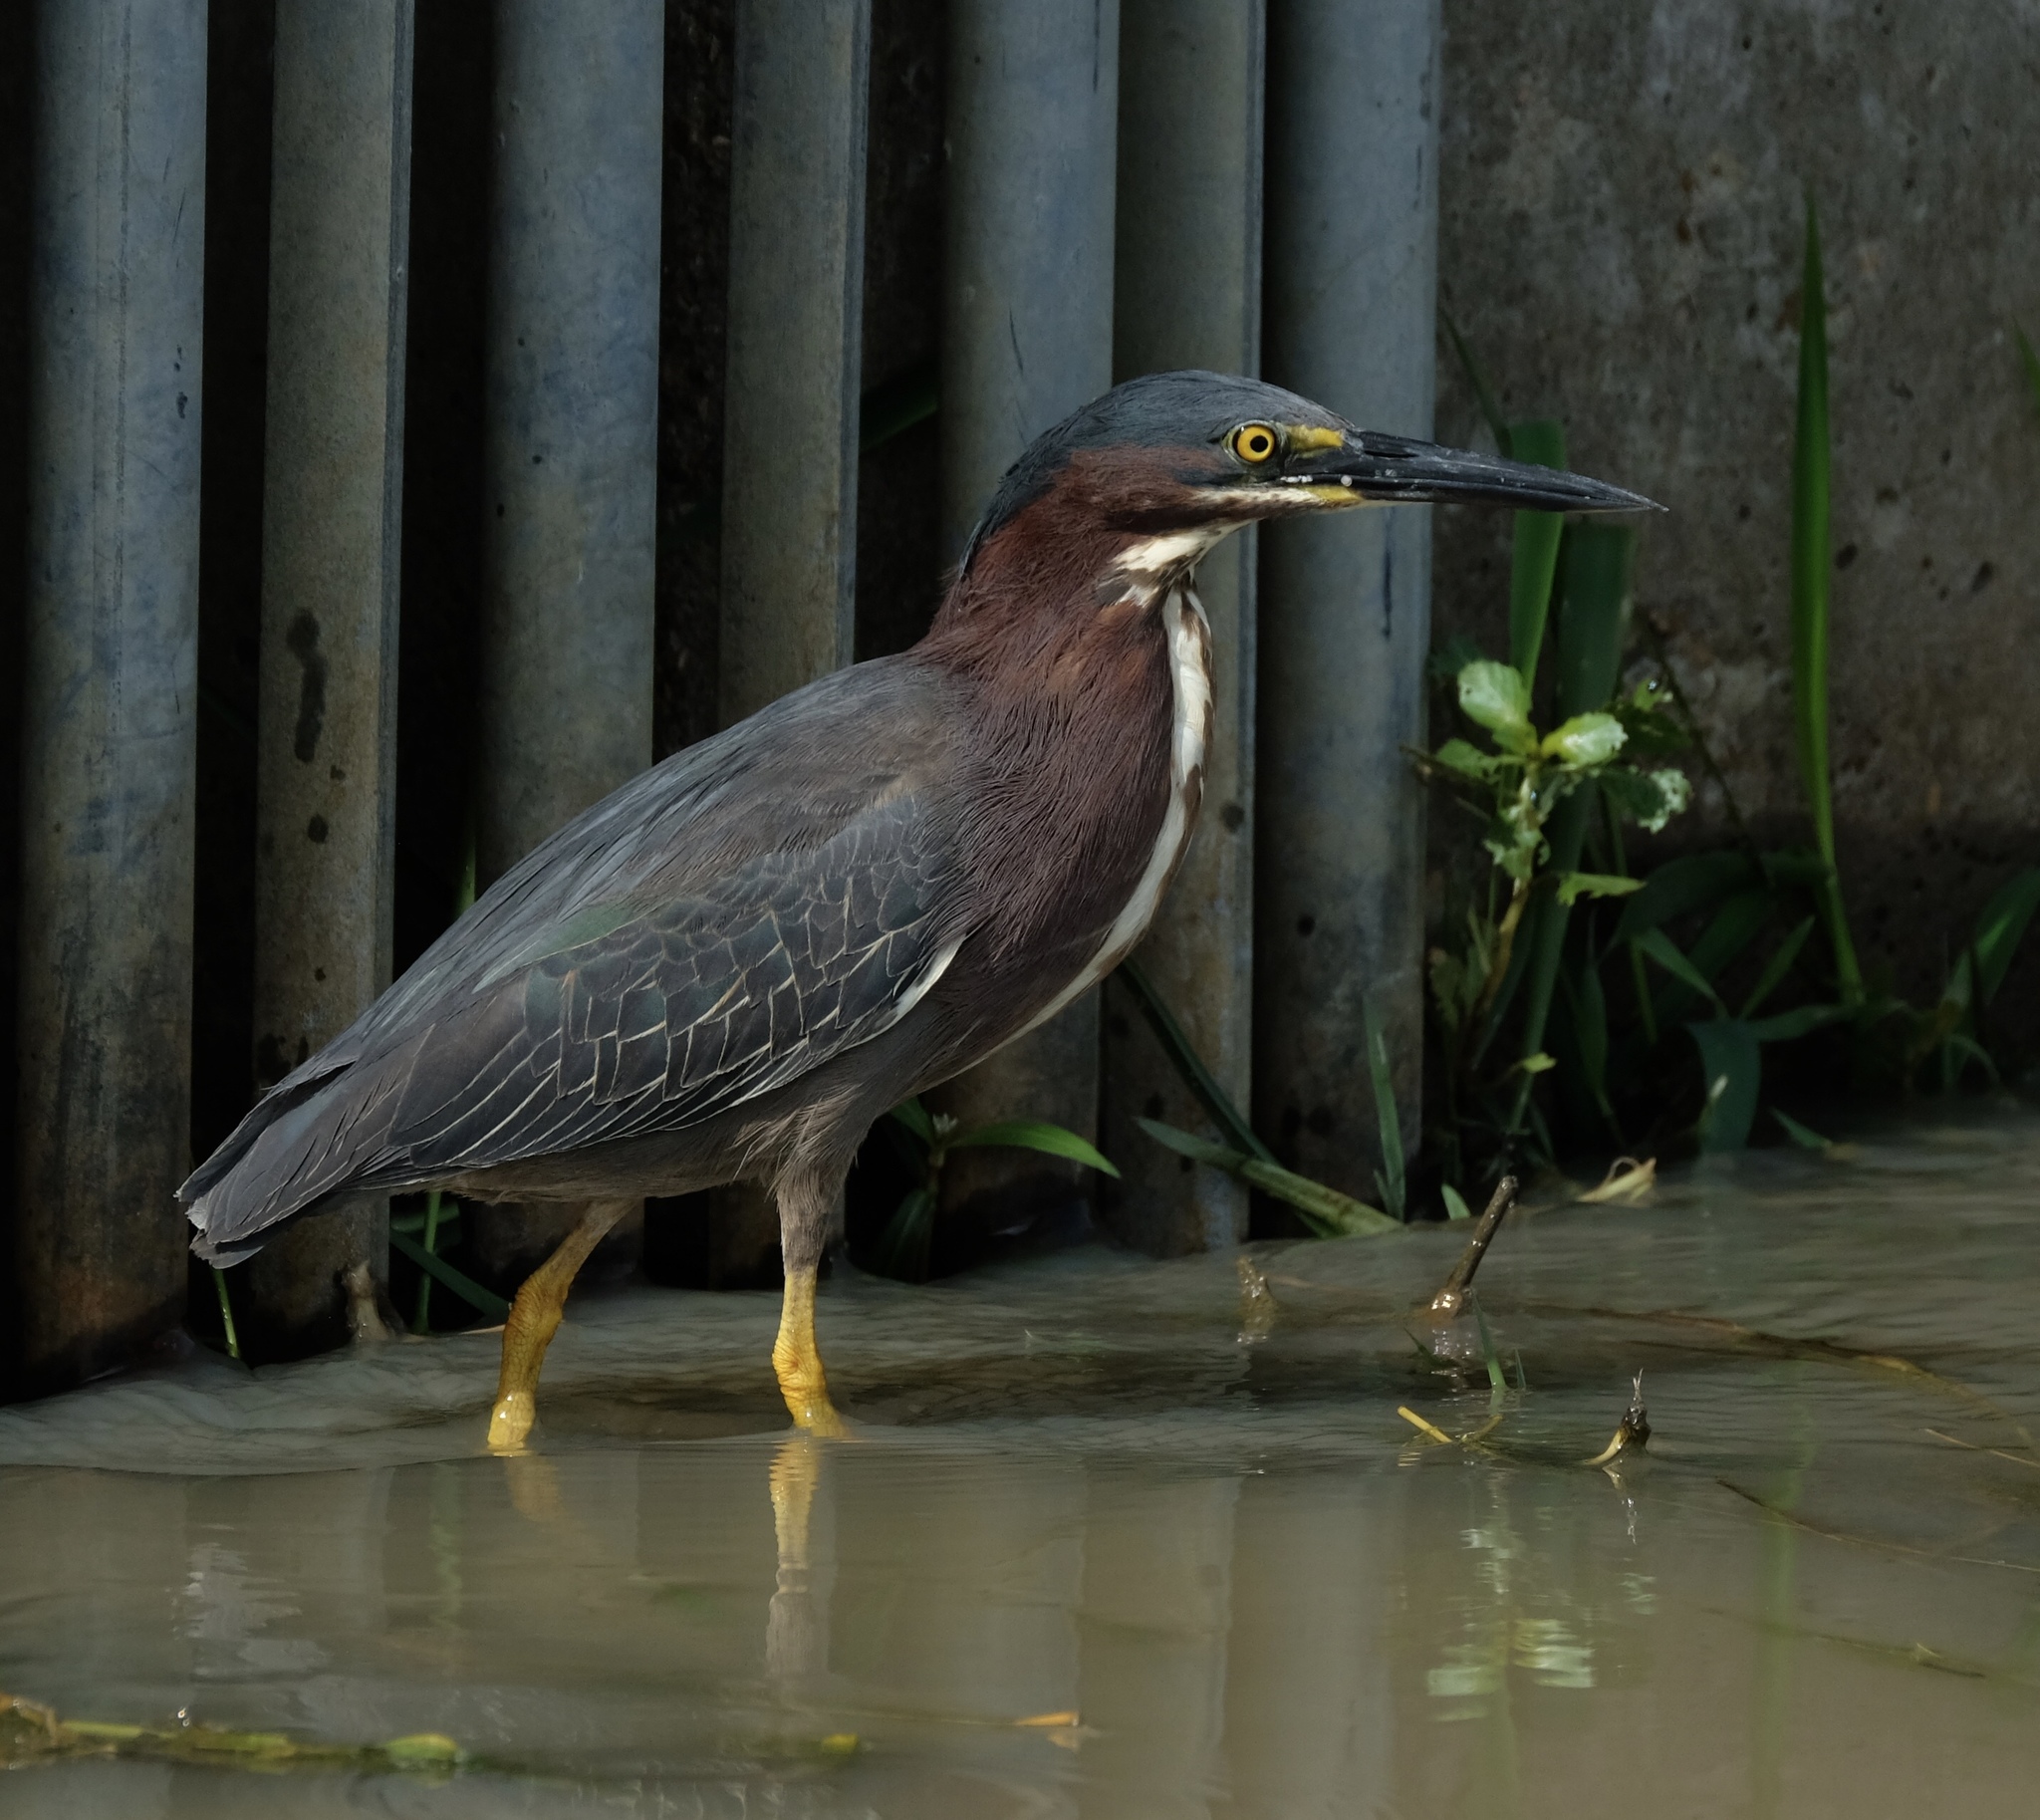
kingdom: Animalia
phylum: Chordata
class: Aves
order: Pelecaniformes
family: Ardeidae
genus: Butorides
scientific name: Butorides virescens
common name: Green heron
